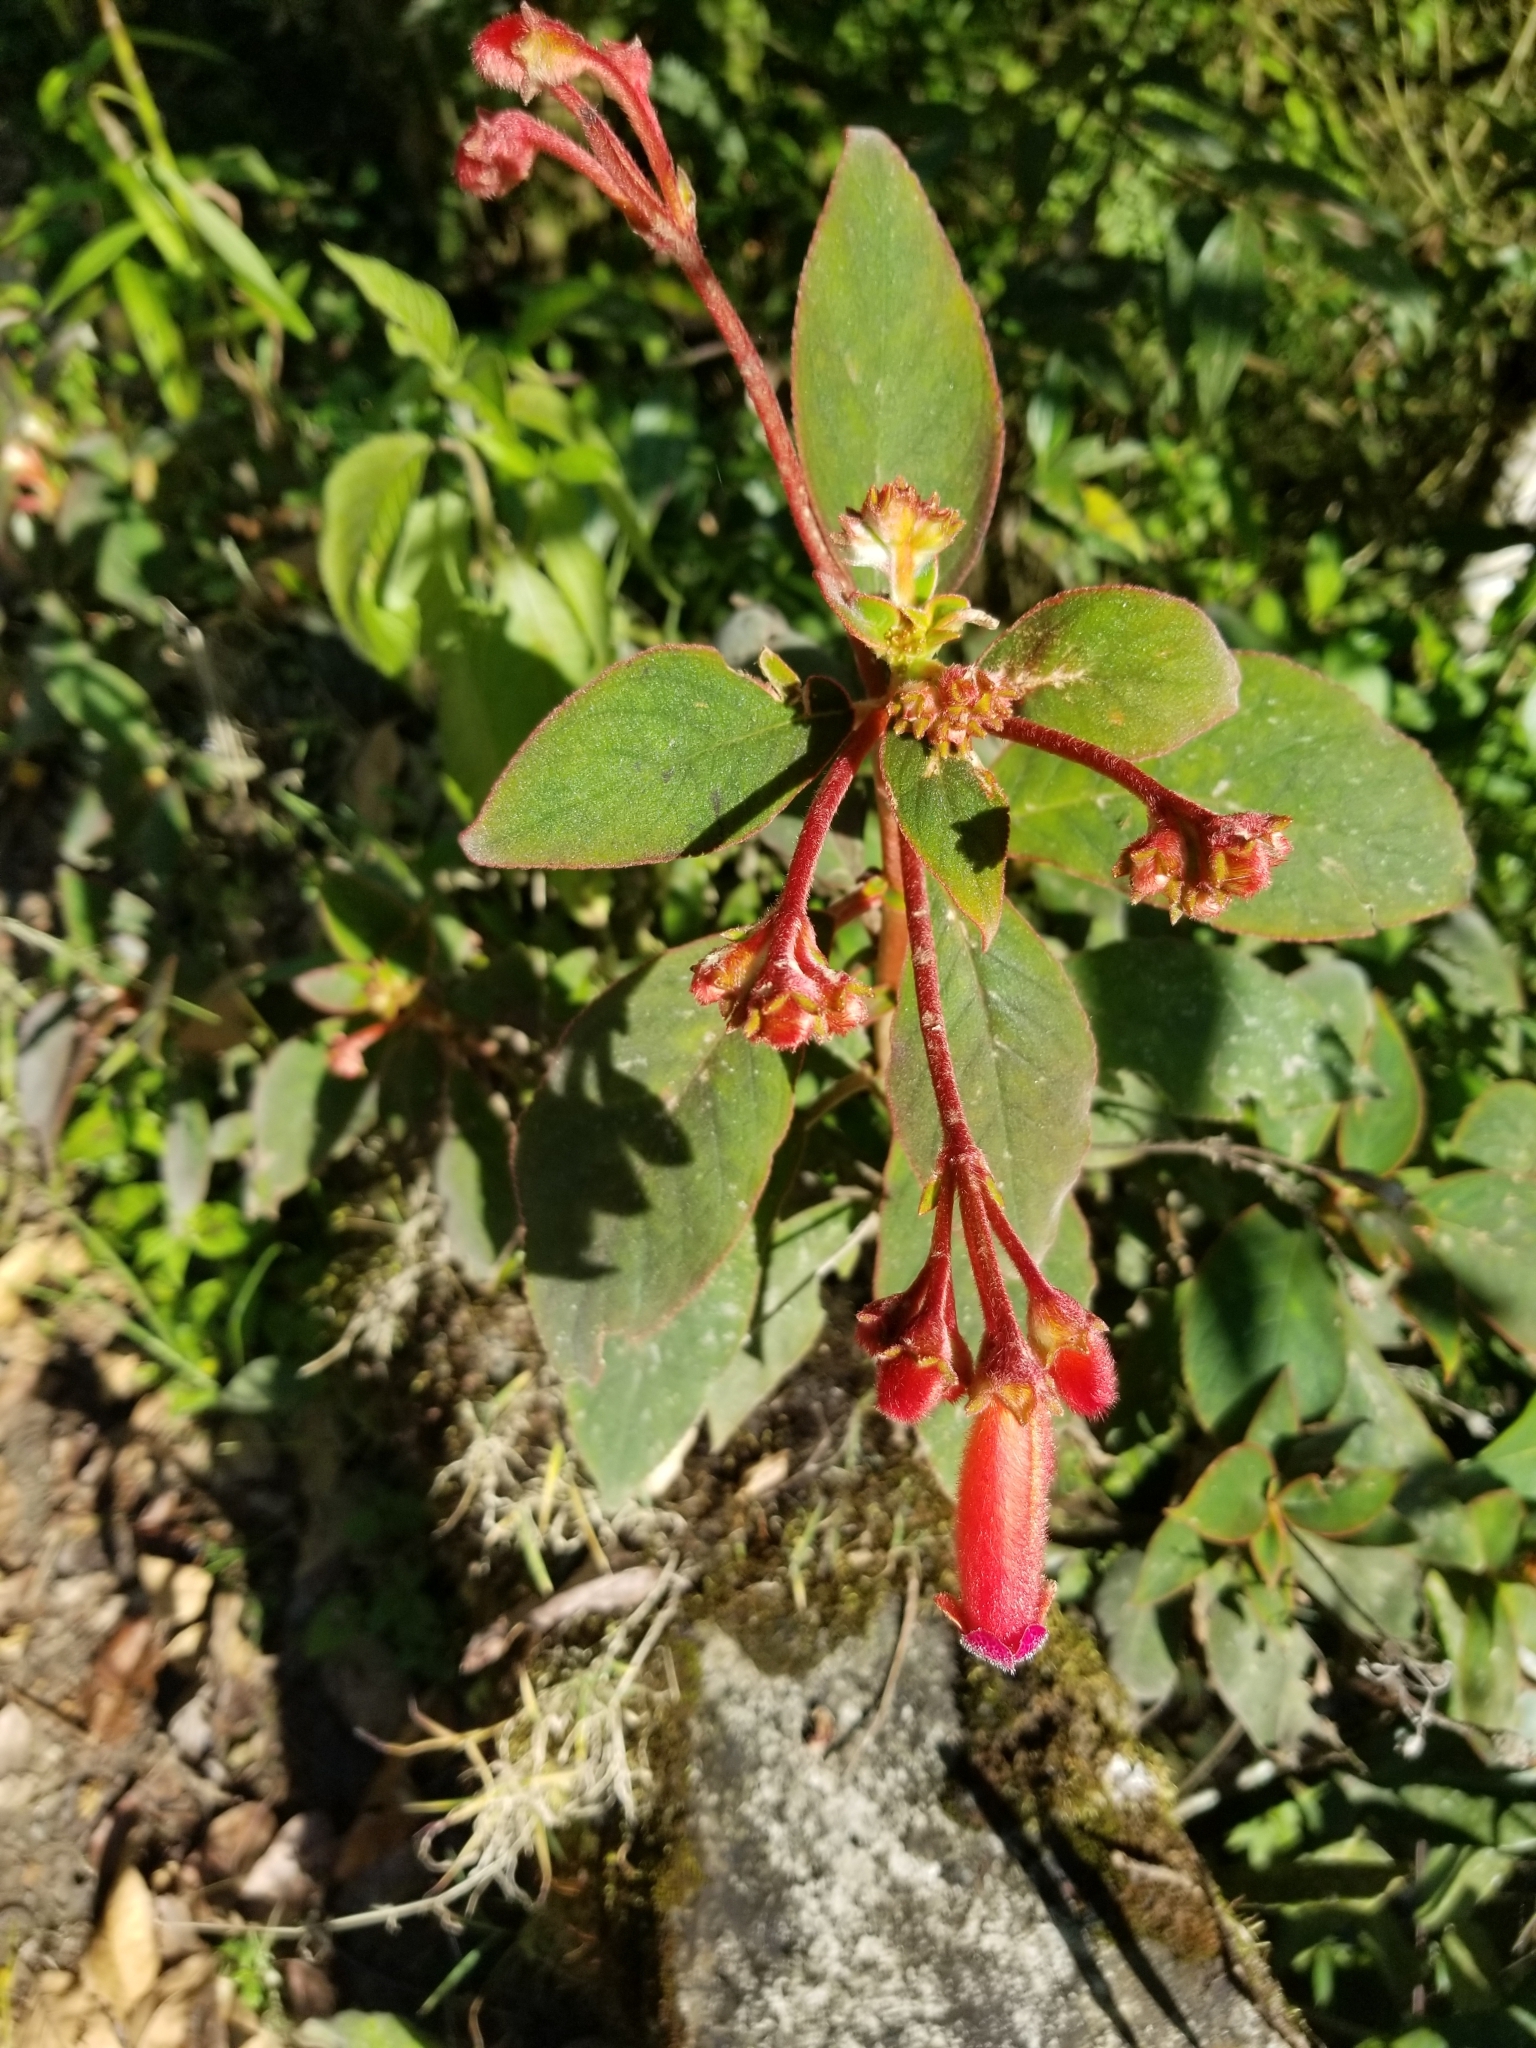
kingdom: Plantae
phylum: Tracheophyta
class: Magnoliopsida
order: Lamiales
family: Gesneriaceae
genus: Kohleria
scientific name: Kohleria trianae
